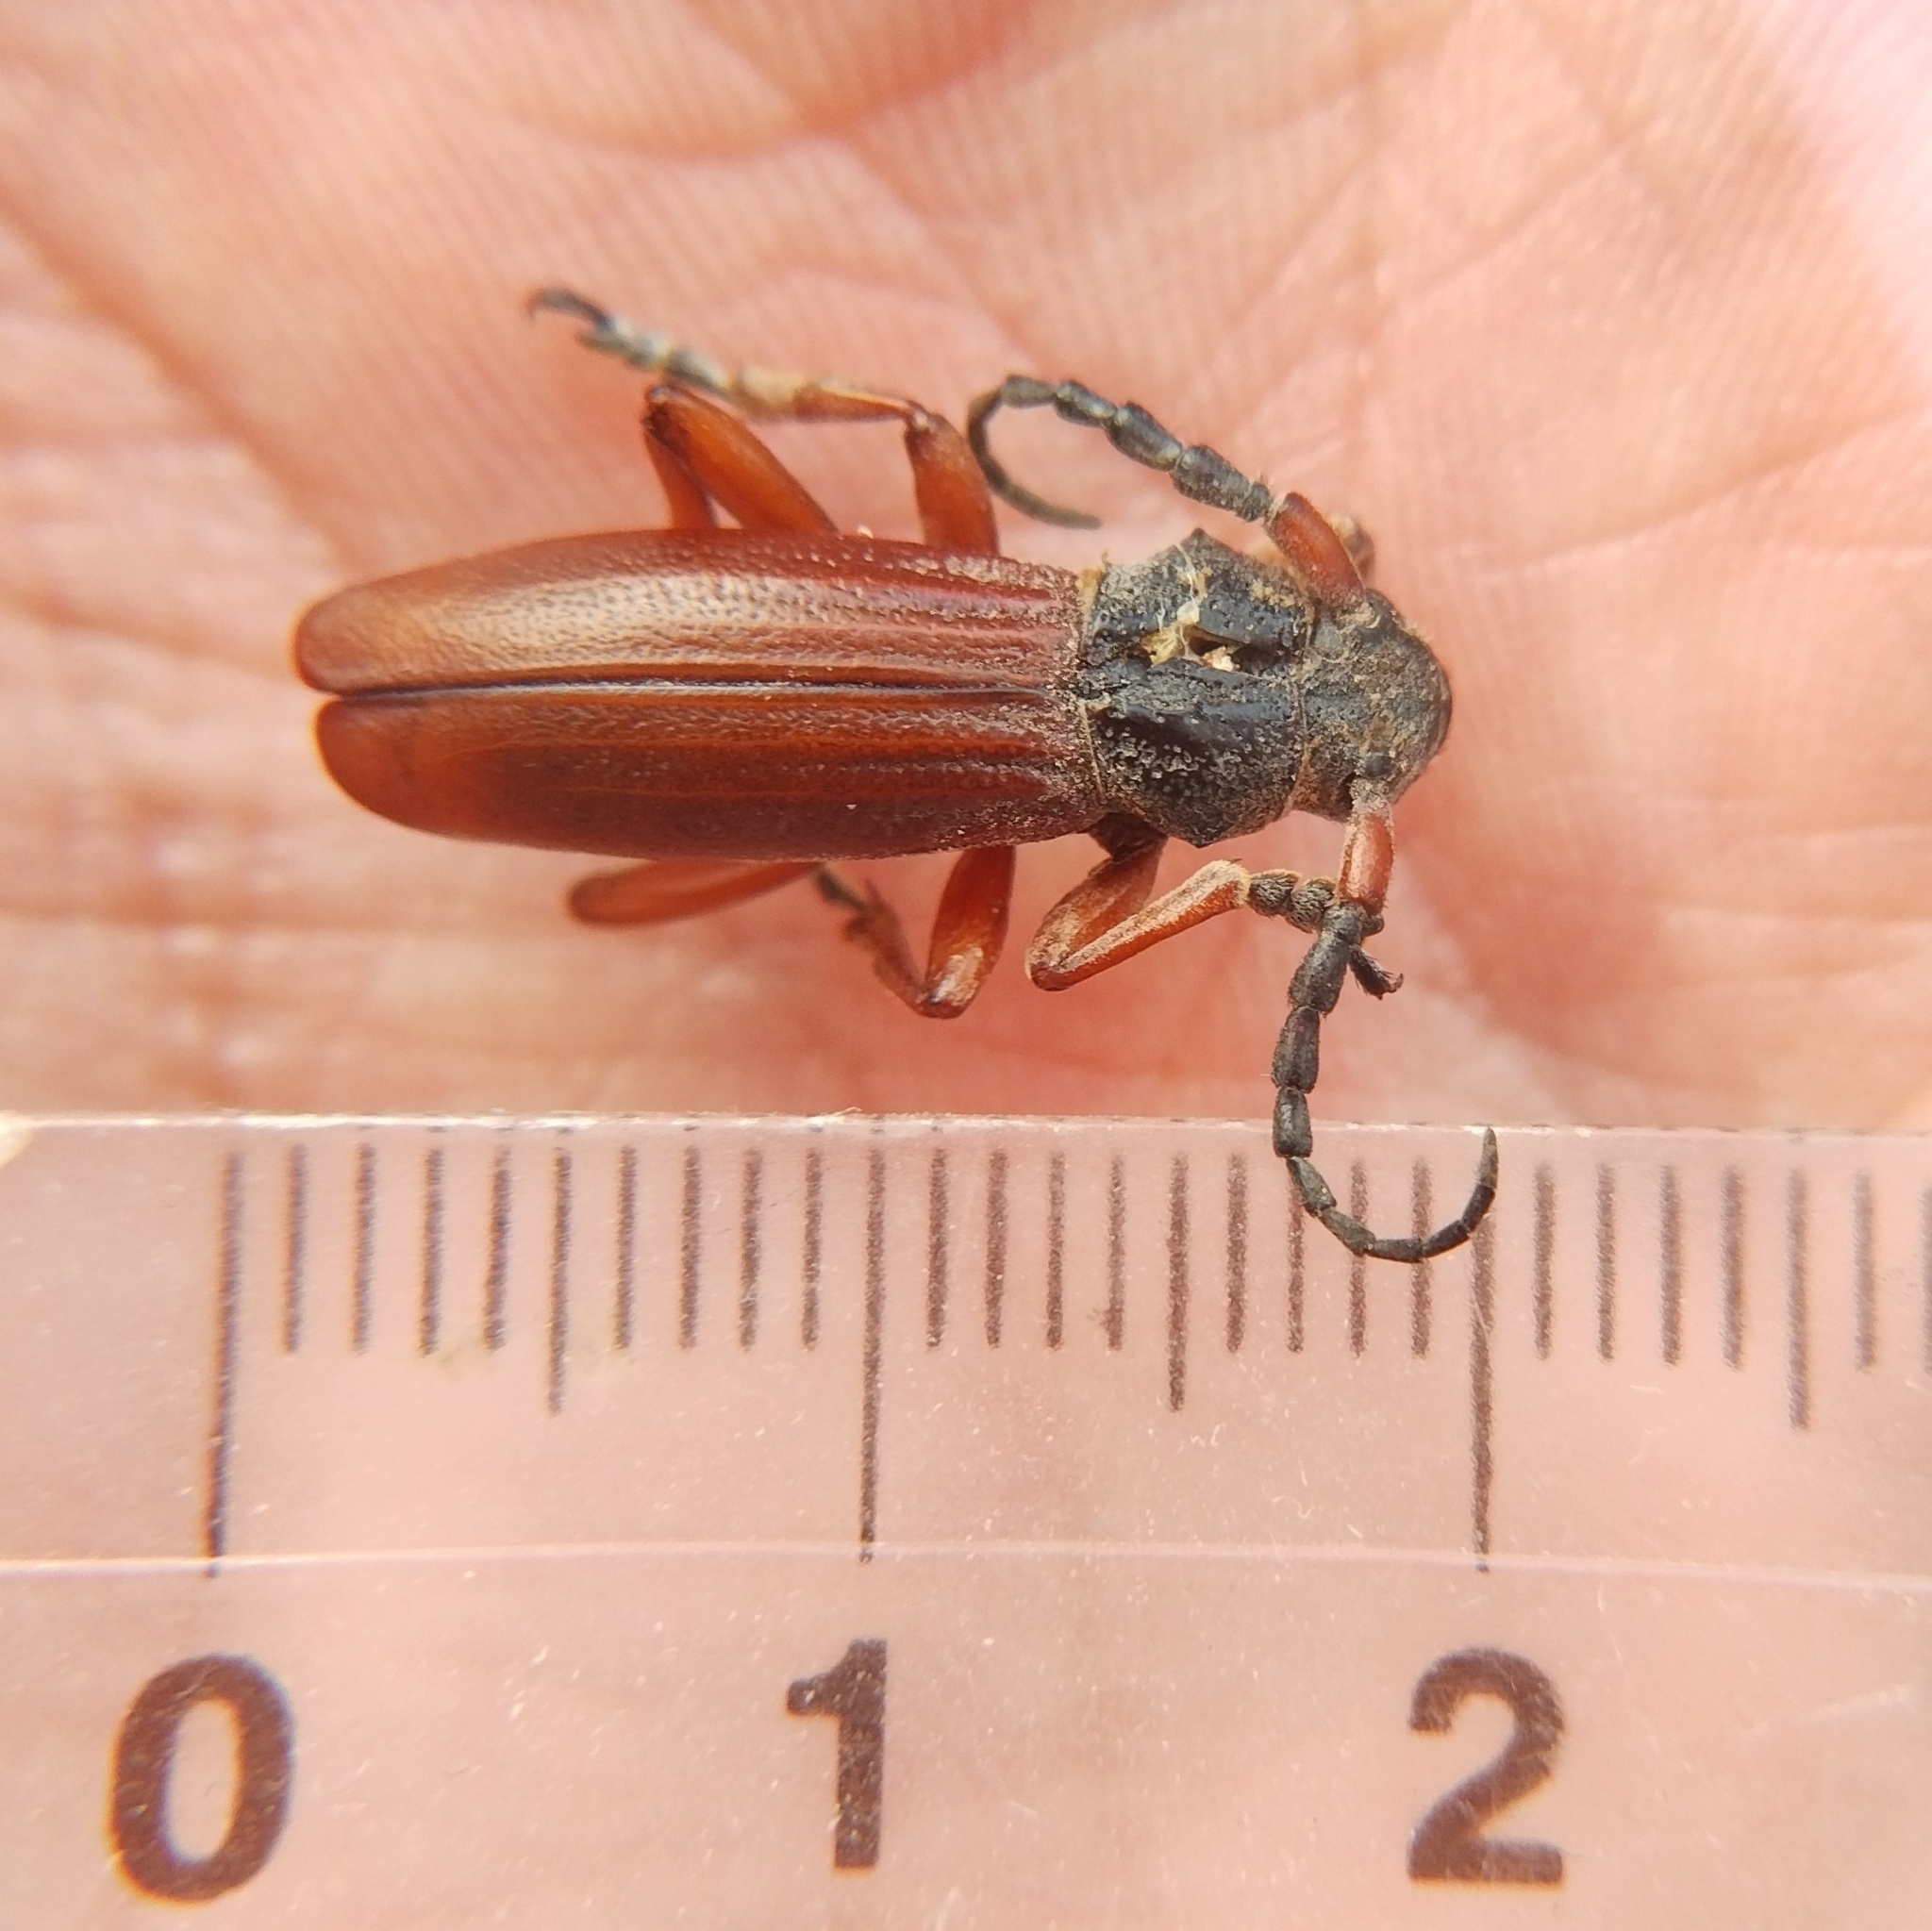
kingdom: Animalia
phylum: Arthropoda
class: Insecta
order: Coleoptera
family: Cerambycidae
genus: Dorcadion
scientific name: Dorcadion fulvum
